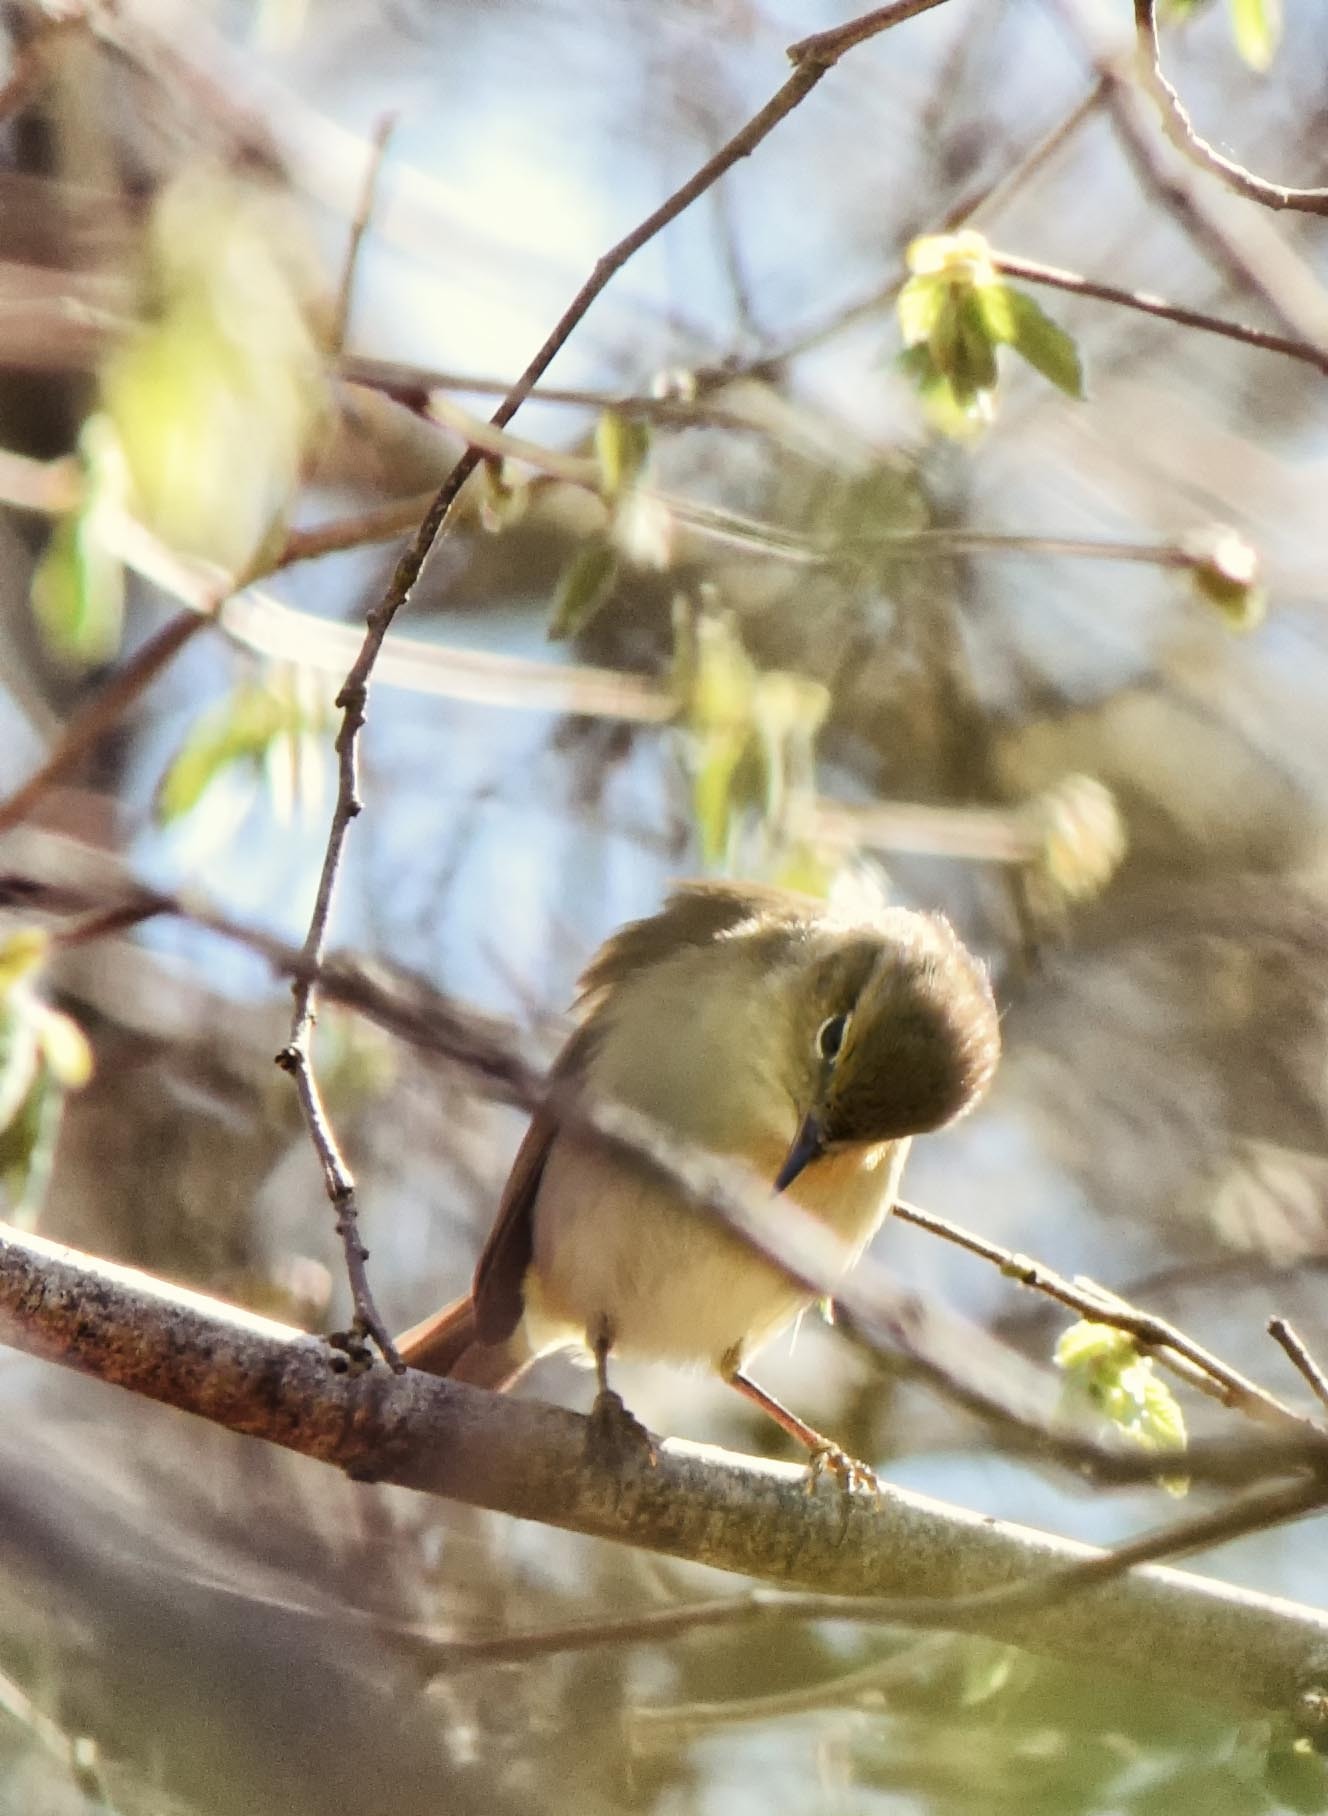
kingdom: Animalia
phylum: Chordata
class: Aves
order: Passeriformes
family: Phylloscopidae
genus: Phylloscopus
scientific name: Phylloscopus collybita
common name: Common chiffchaff
